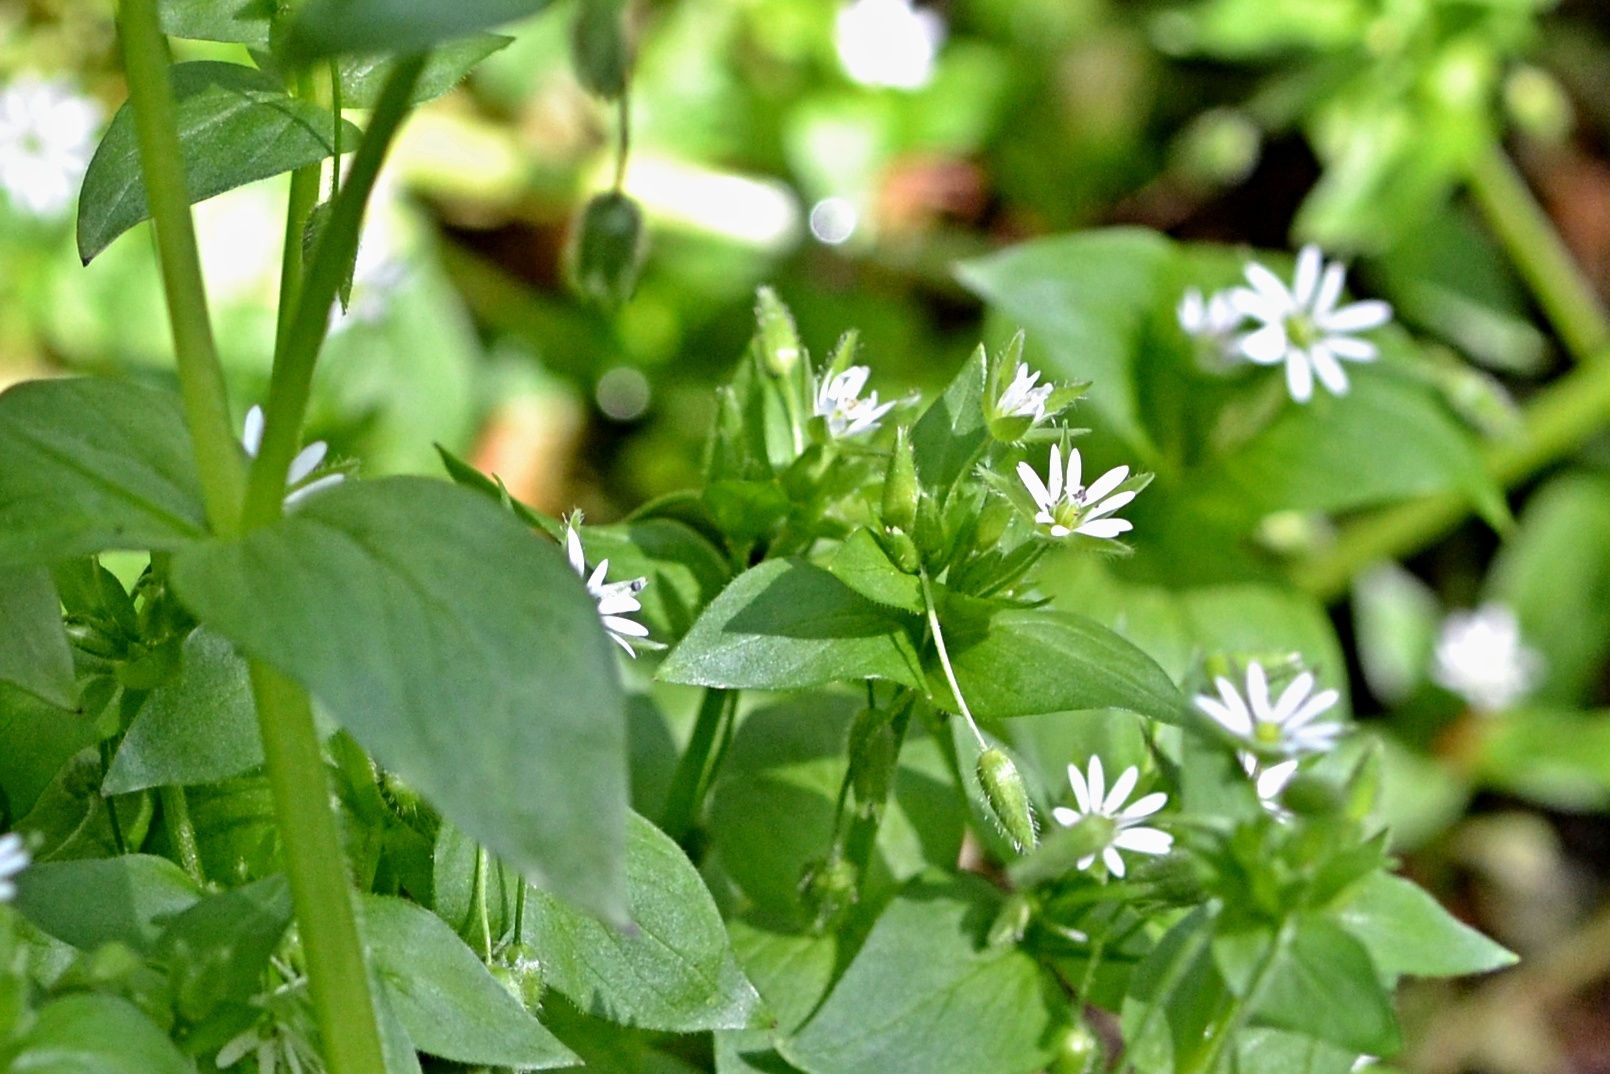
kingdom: Plantae
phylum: Tracheophyta
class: Magnoliopsida
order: Caryophyllales
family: Caryophyllaceae
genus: Stellaria
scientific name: Stellaria nemorum
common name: Wood stitchwort
